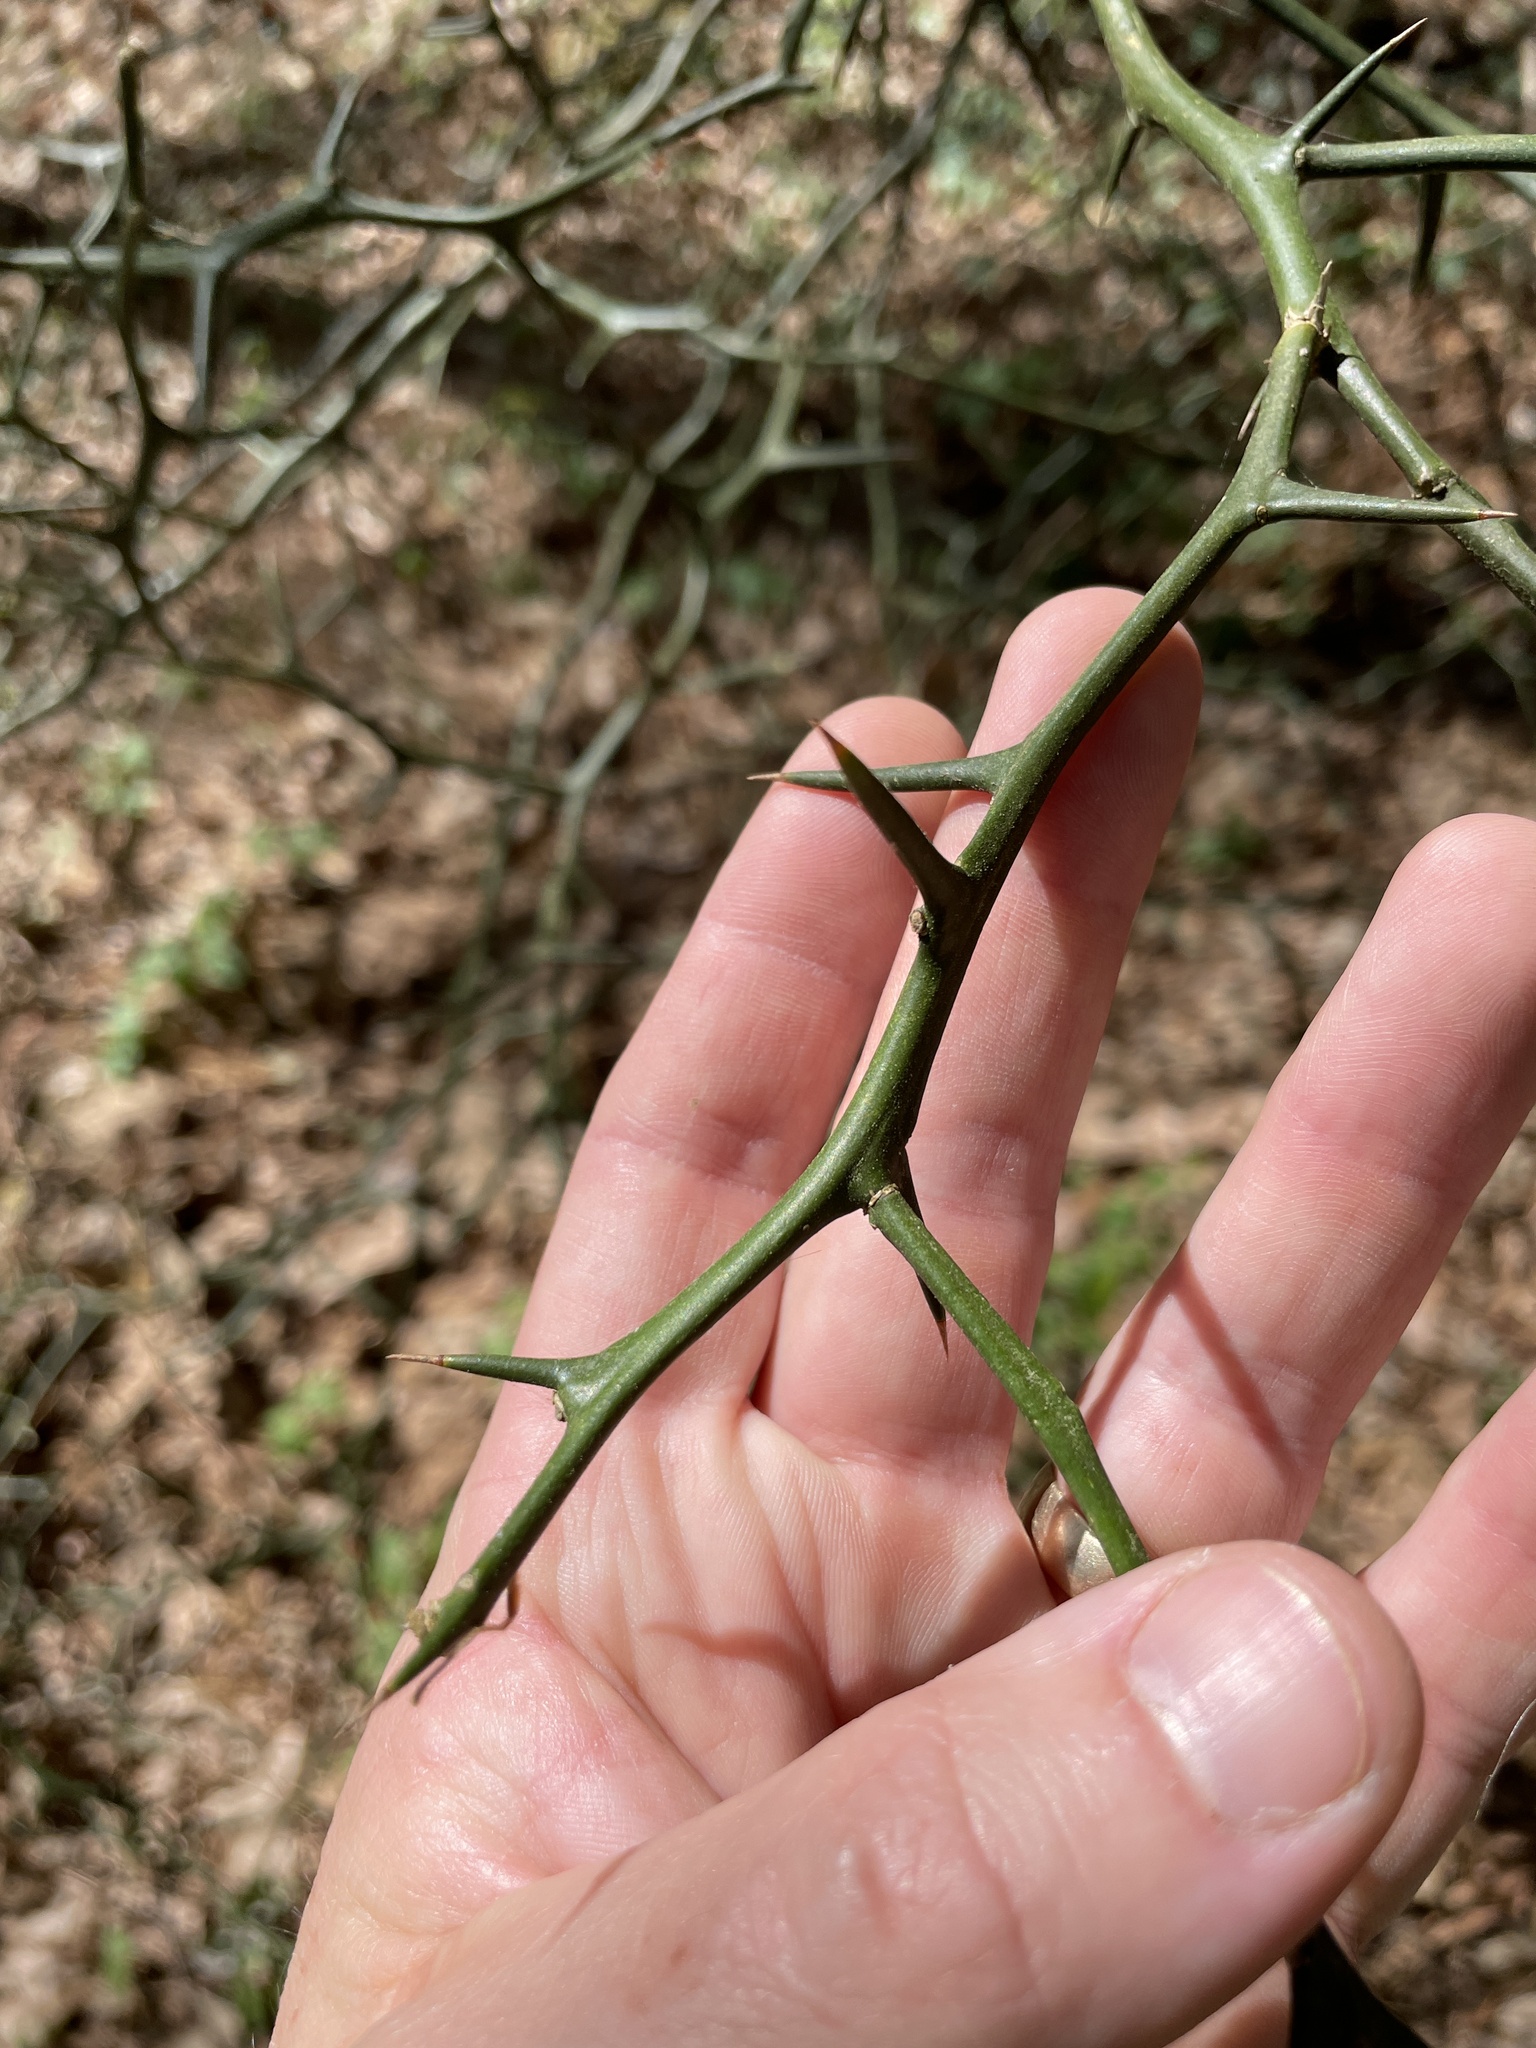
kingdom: Plantae
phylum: Tracheophyta
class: Magnoliopsida
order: Sapindales
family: Rutaceae
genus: Citrus
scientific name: Citrus trifoliata
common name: Japanese bitter-orange
